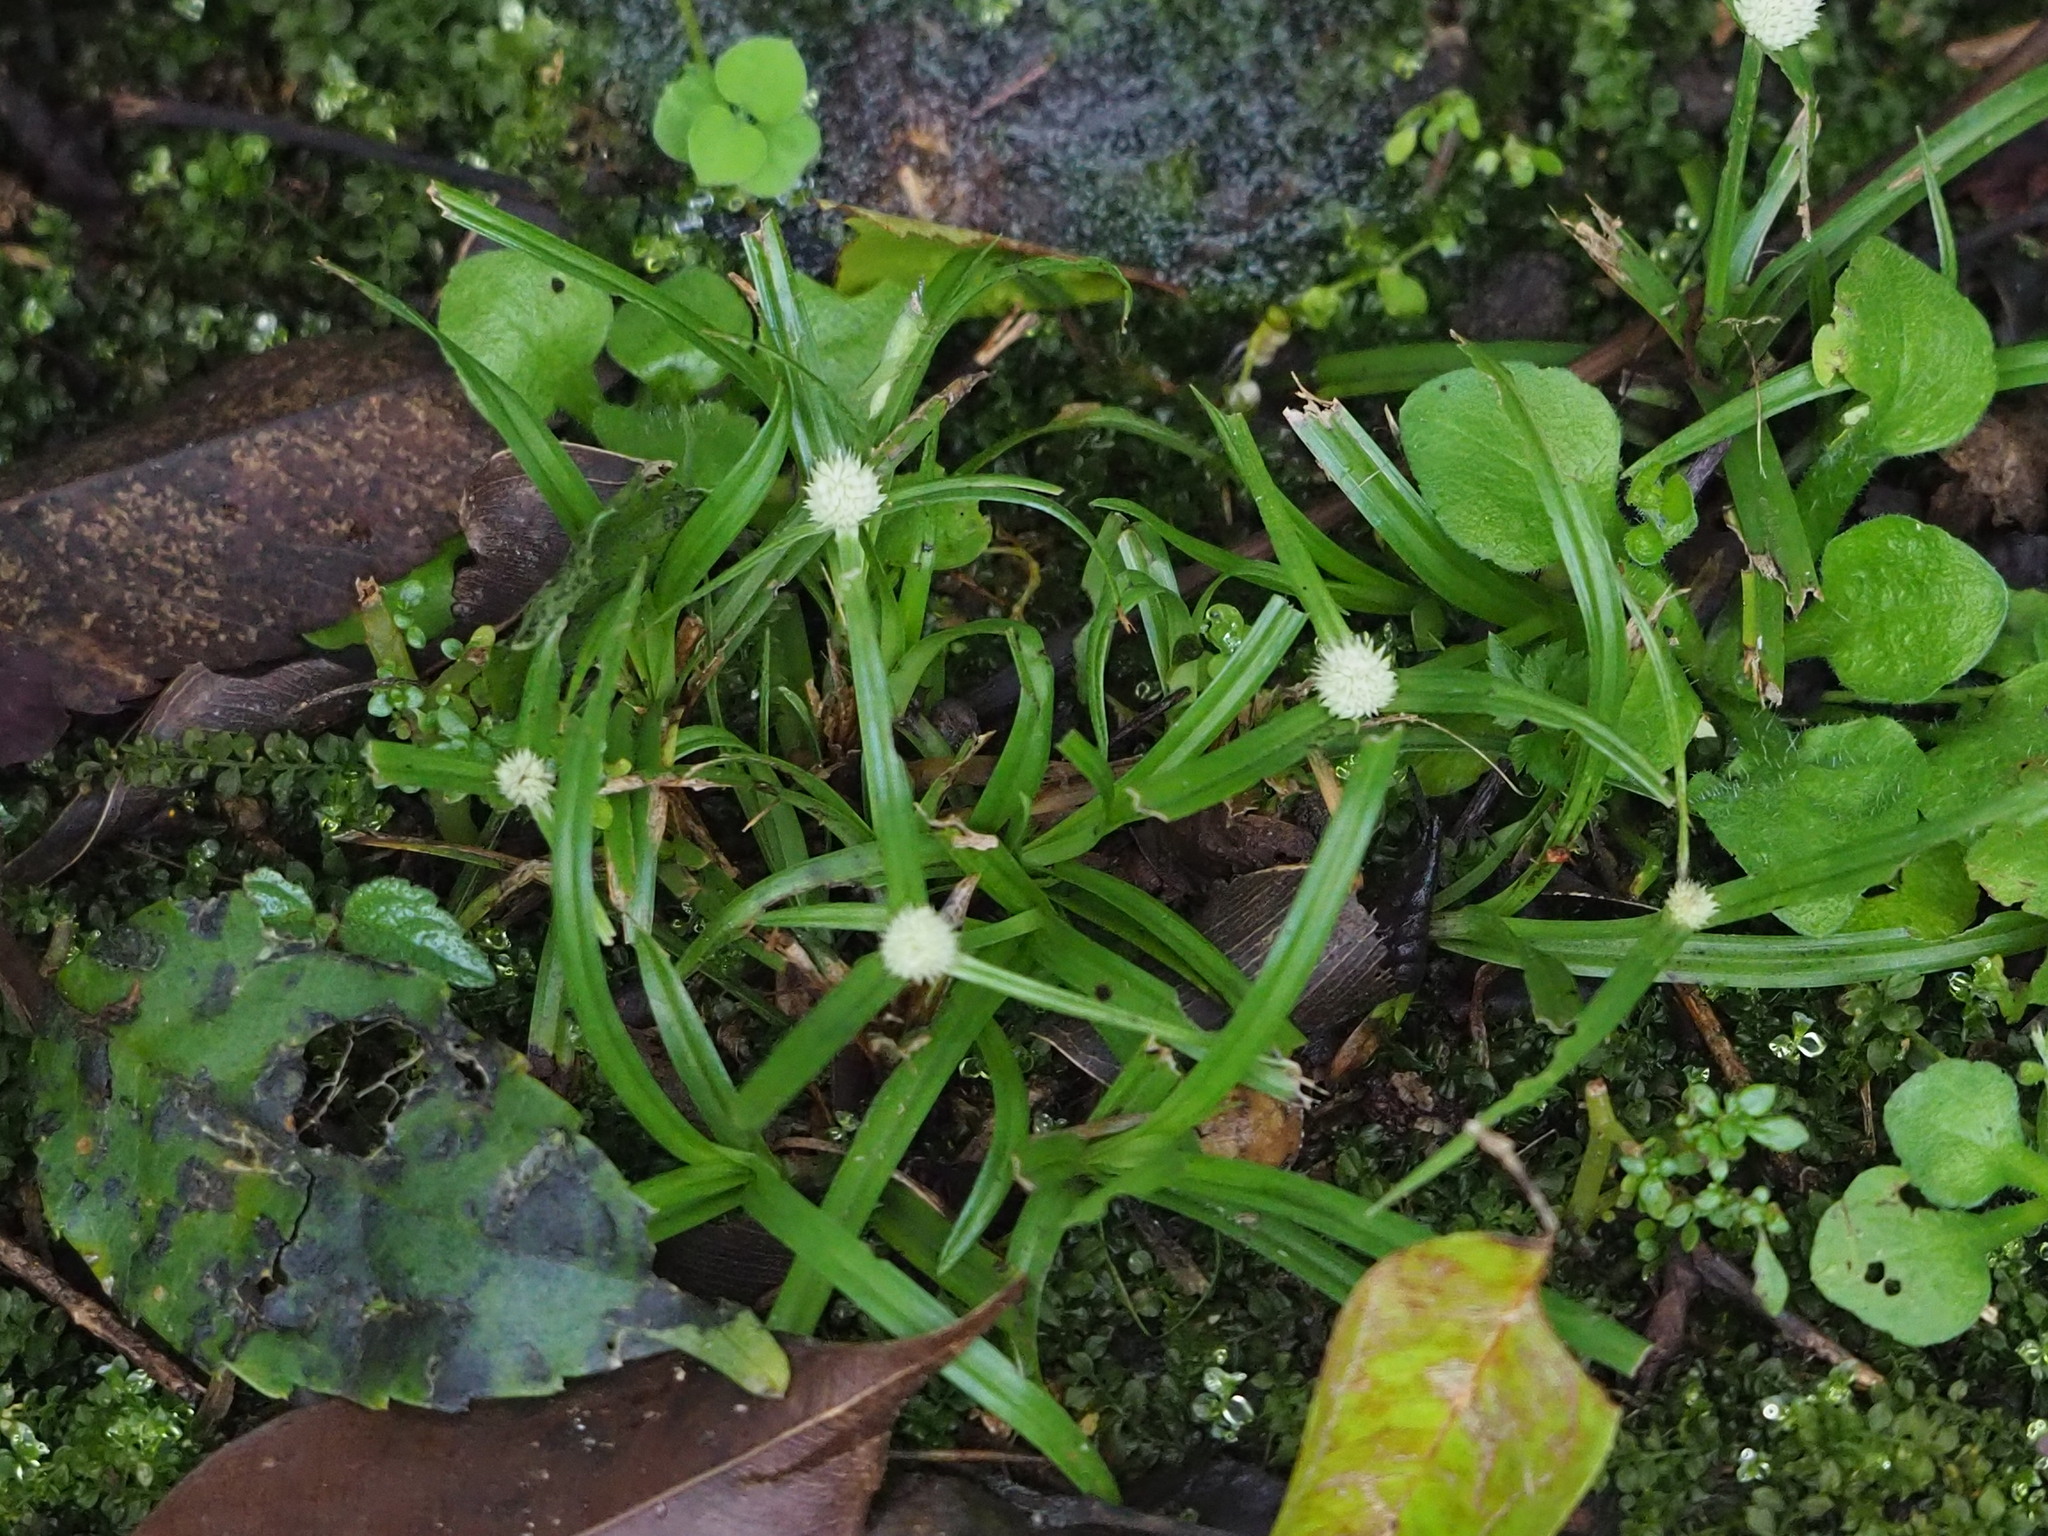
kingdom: Plantae
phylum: Tracheophyta
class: Liliopsida
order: Poales
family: Cyperaceae
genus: Cyperus
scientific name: Cyperus mindorensis
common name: Flatsedge
